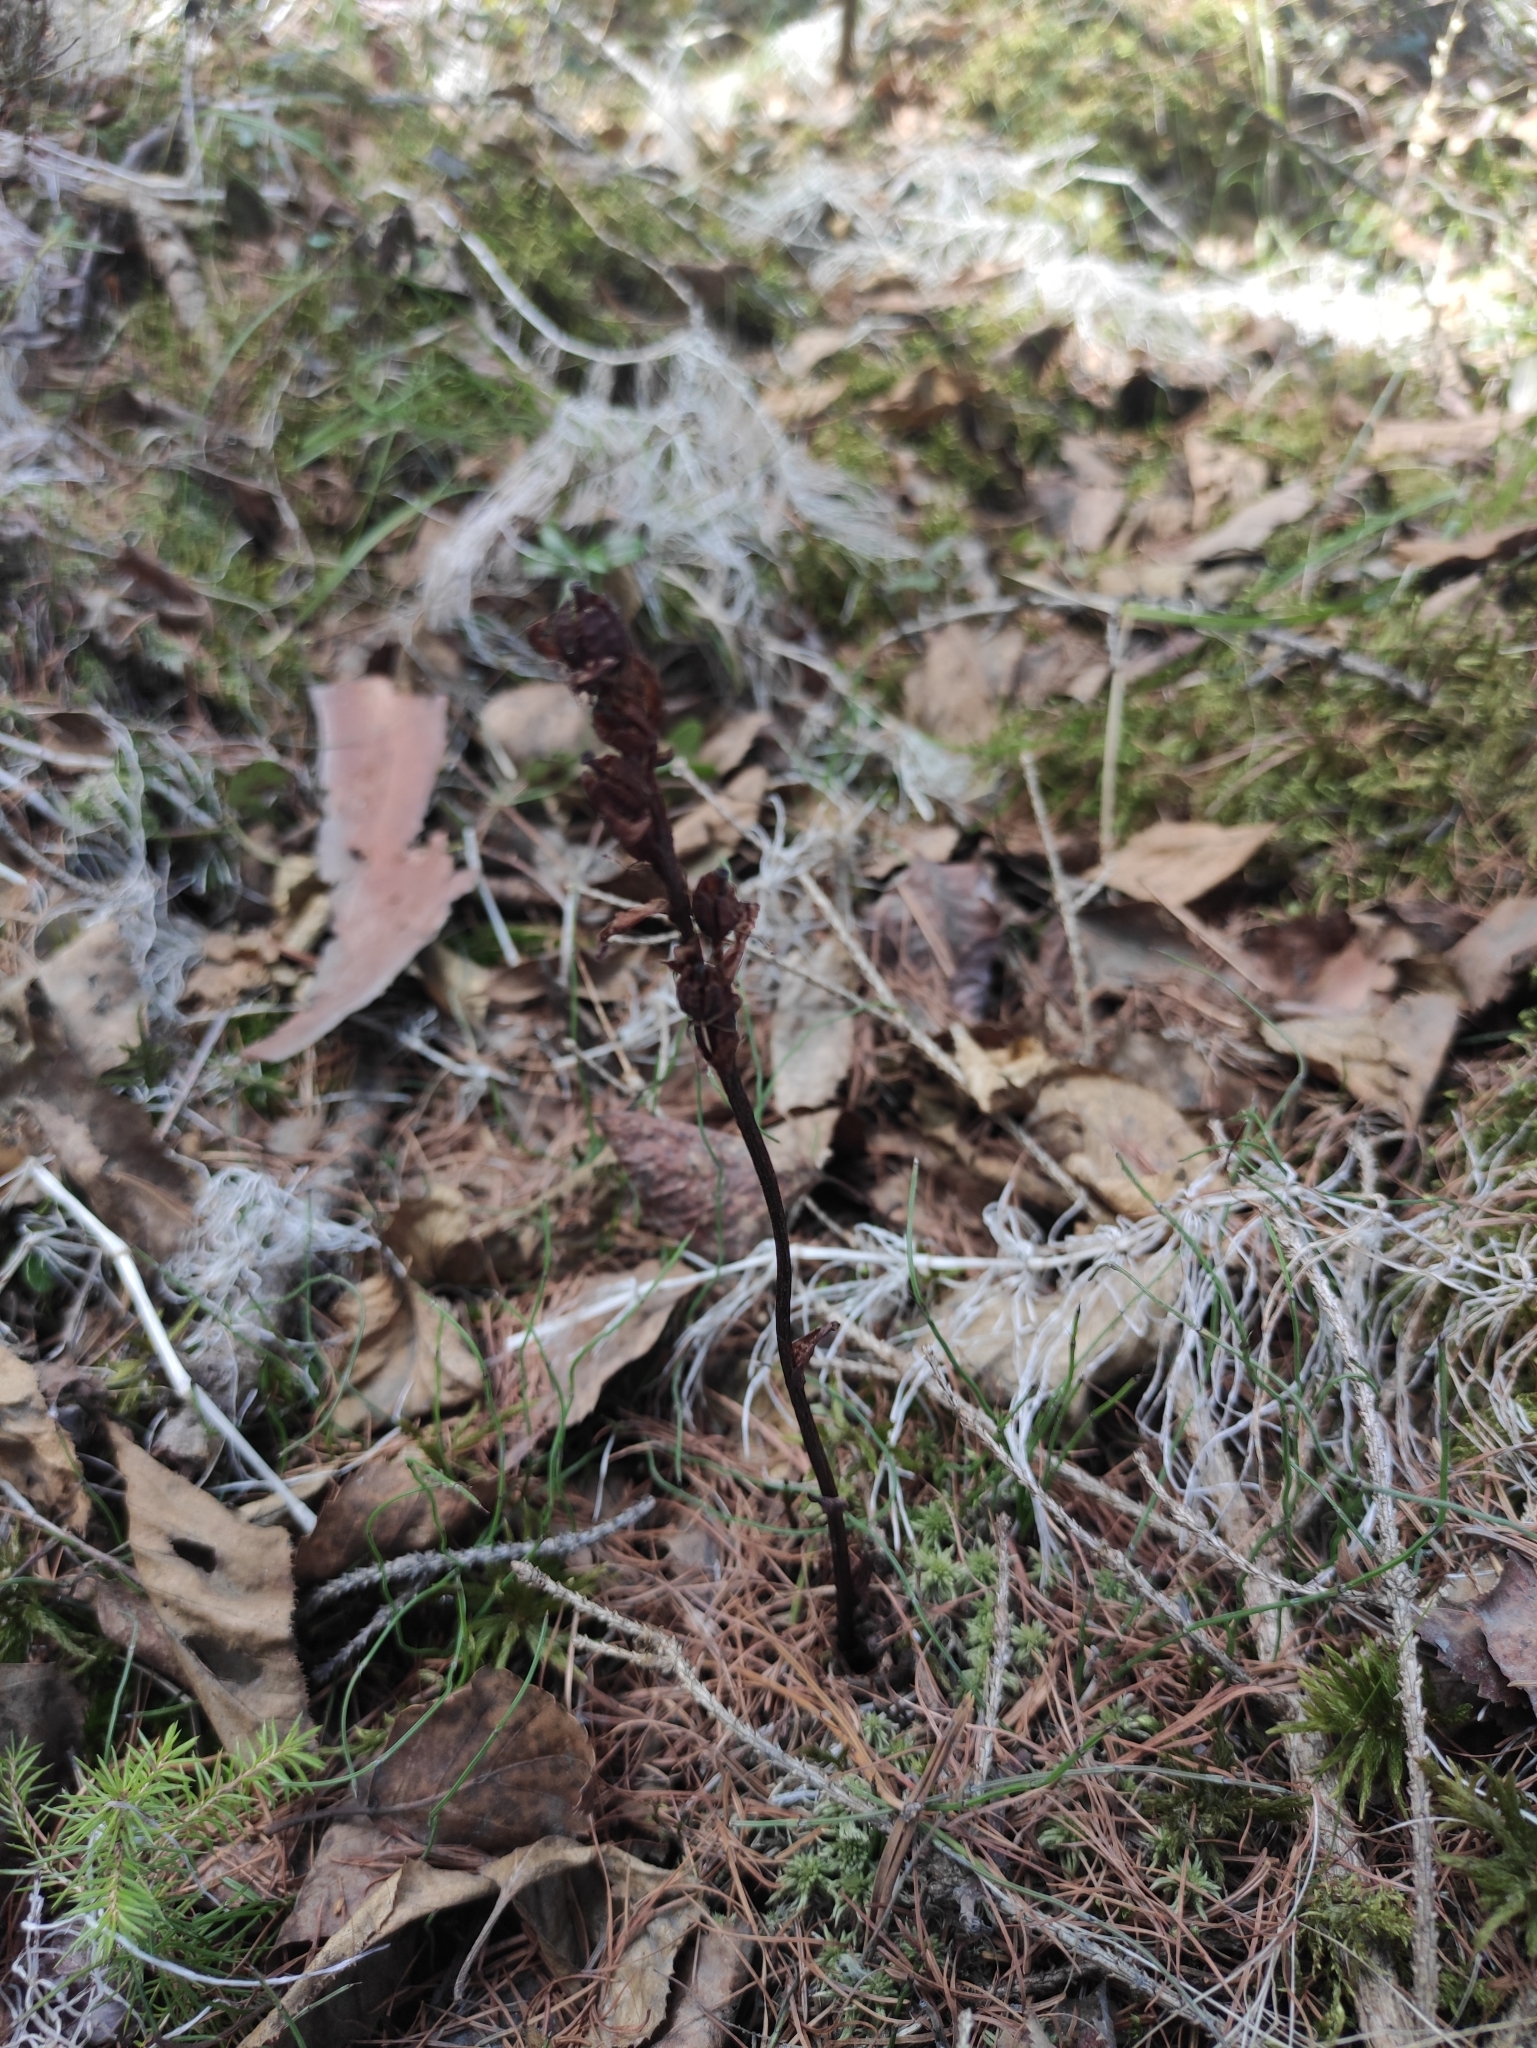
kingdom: Plantae
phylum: Tracheophyta
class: Magnoliopsida
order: Ericales
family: Ericaceae
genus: Hypopitys
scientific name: Hypopitys monotropa
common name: Yellow bird's-nest
